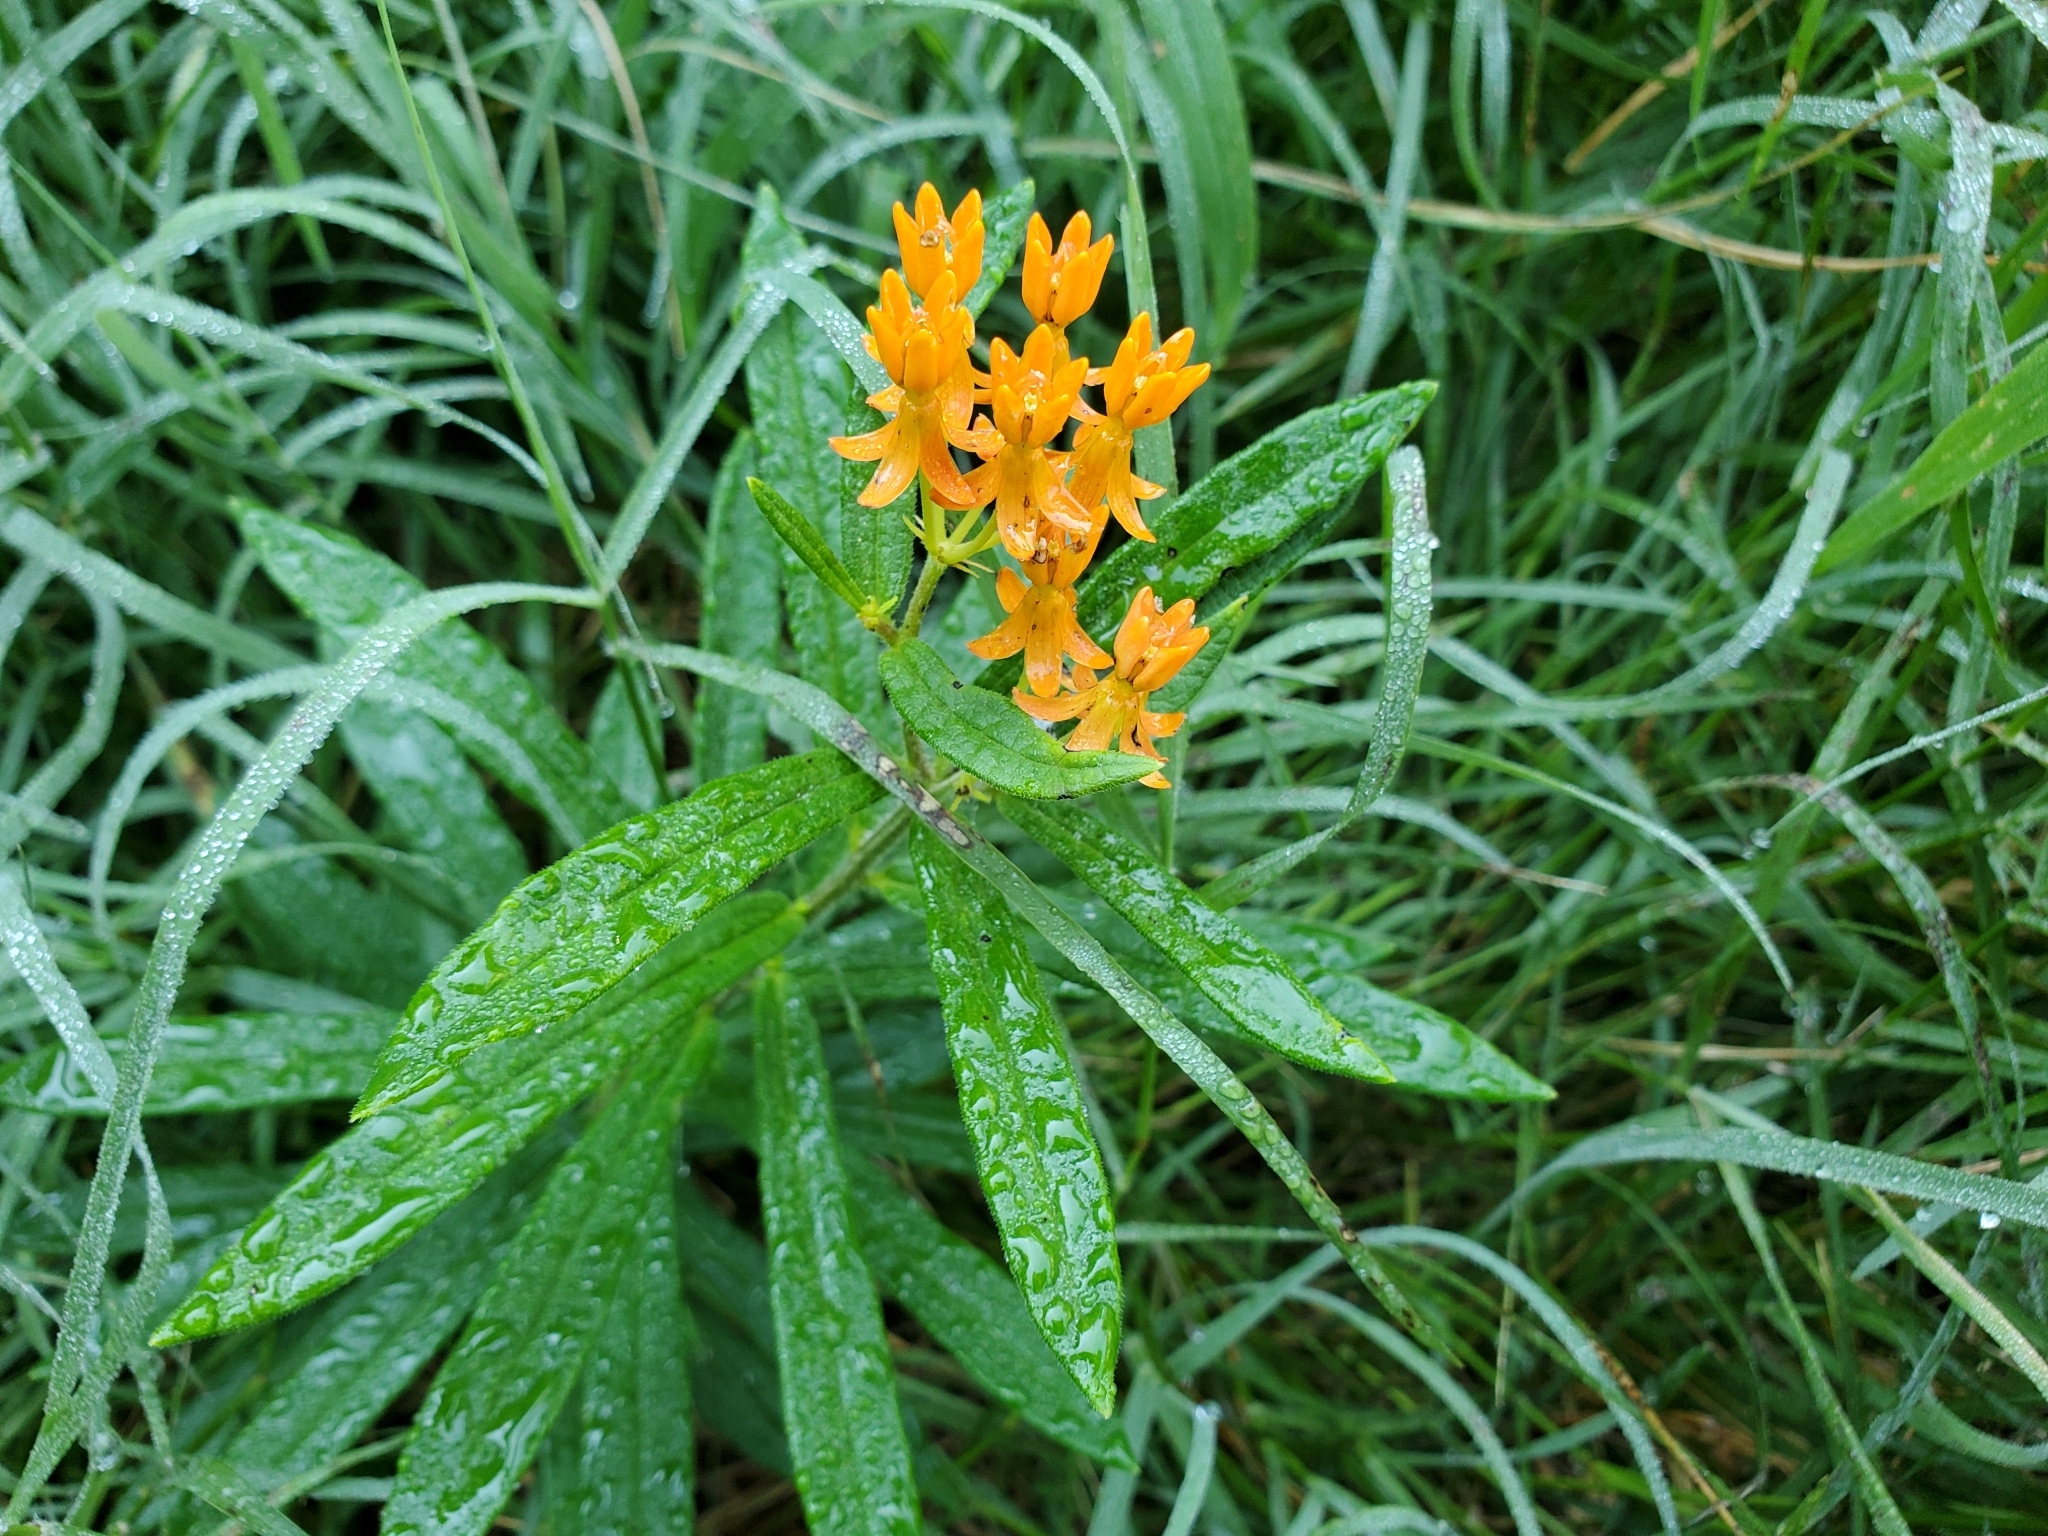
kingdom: Plantae
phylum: Tracheophyta
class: Magnoliopsida
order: Gentianales
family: Apocynaceae
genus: Asclepias
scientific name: Asclepias tuberosa
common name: Butterfly milkweed
